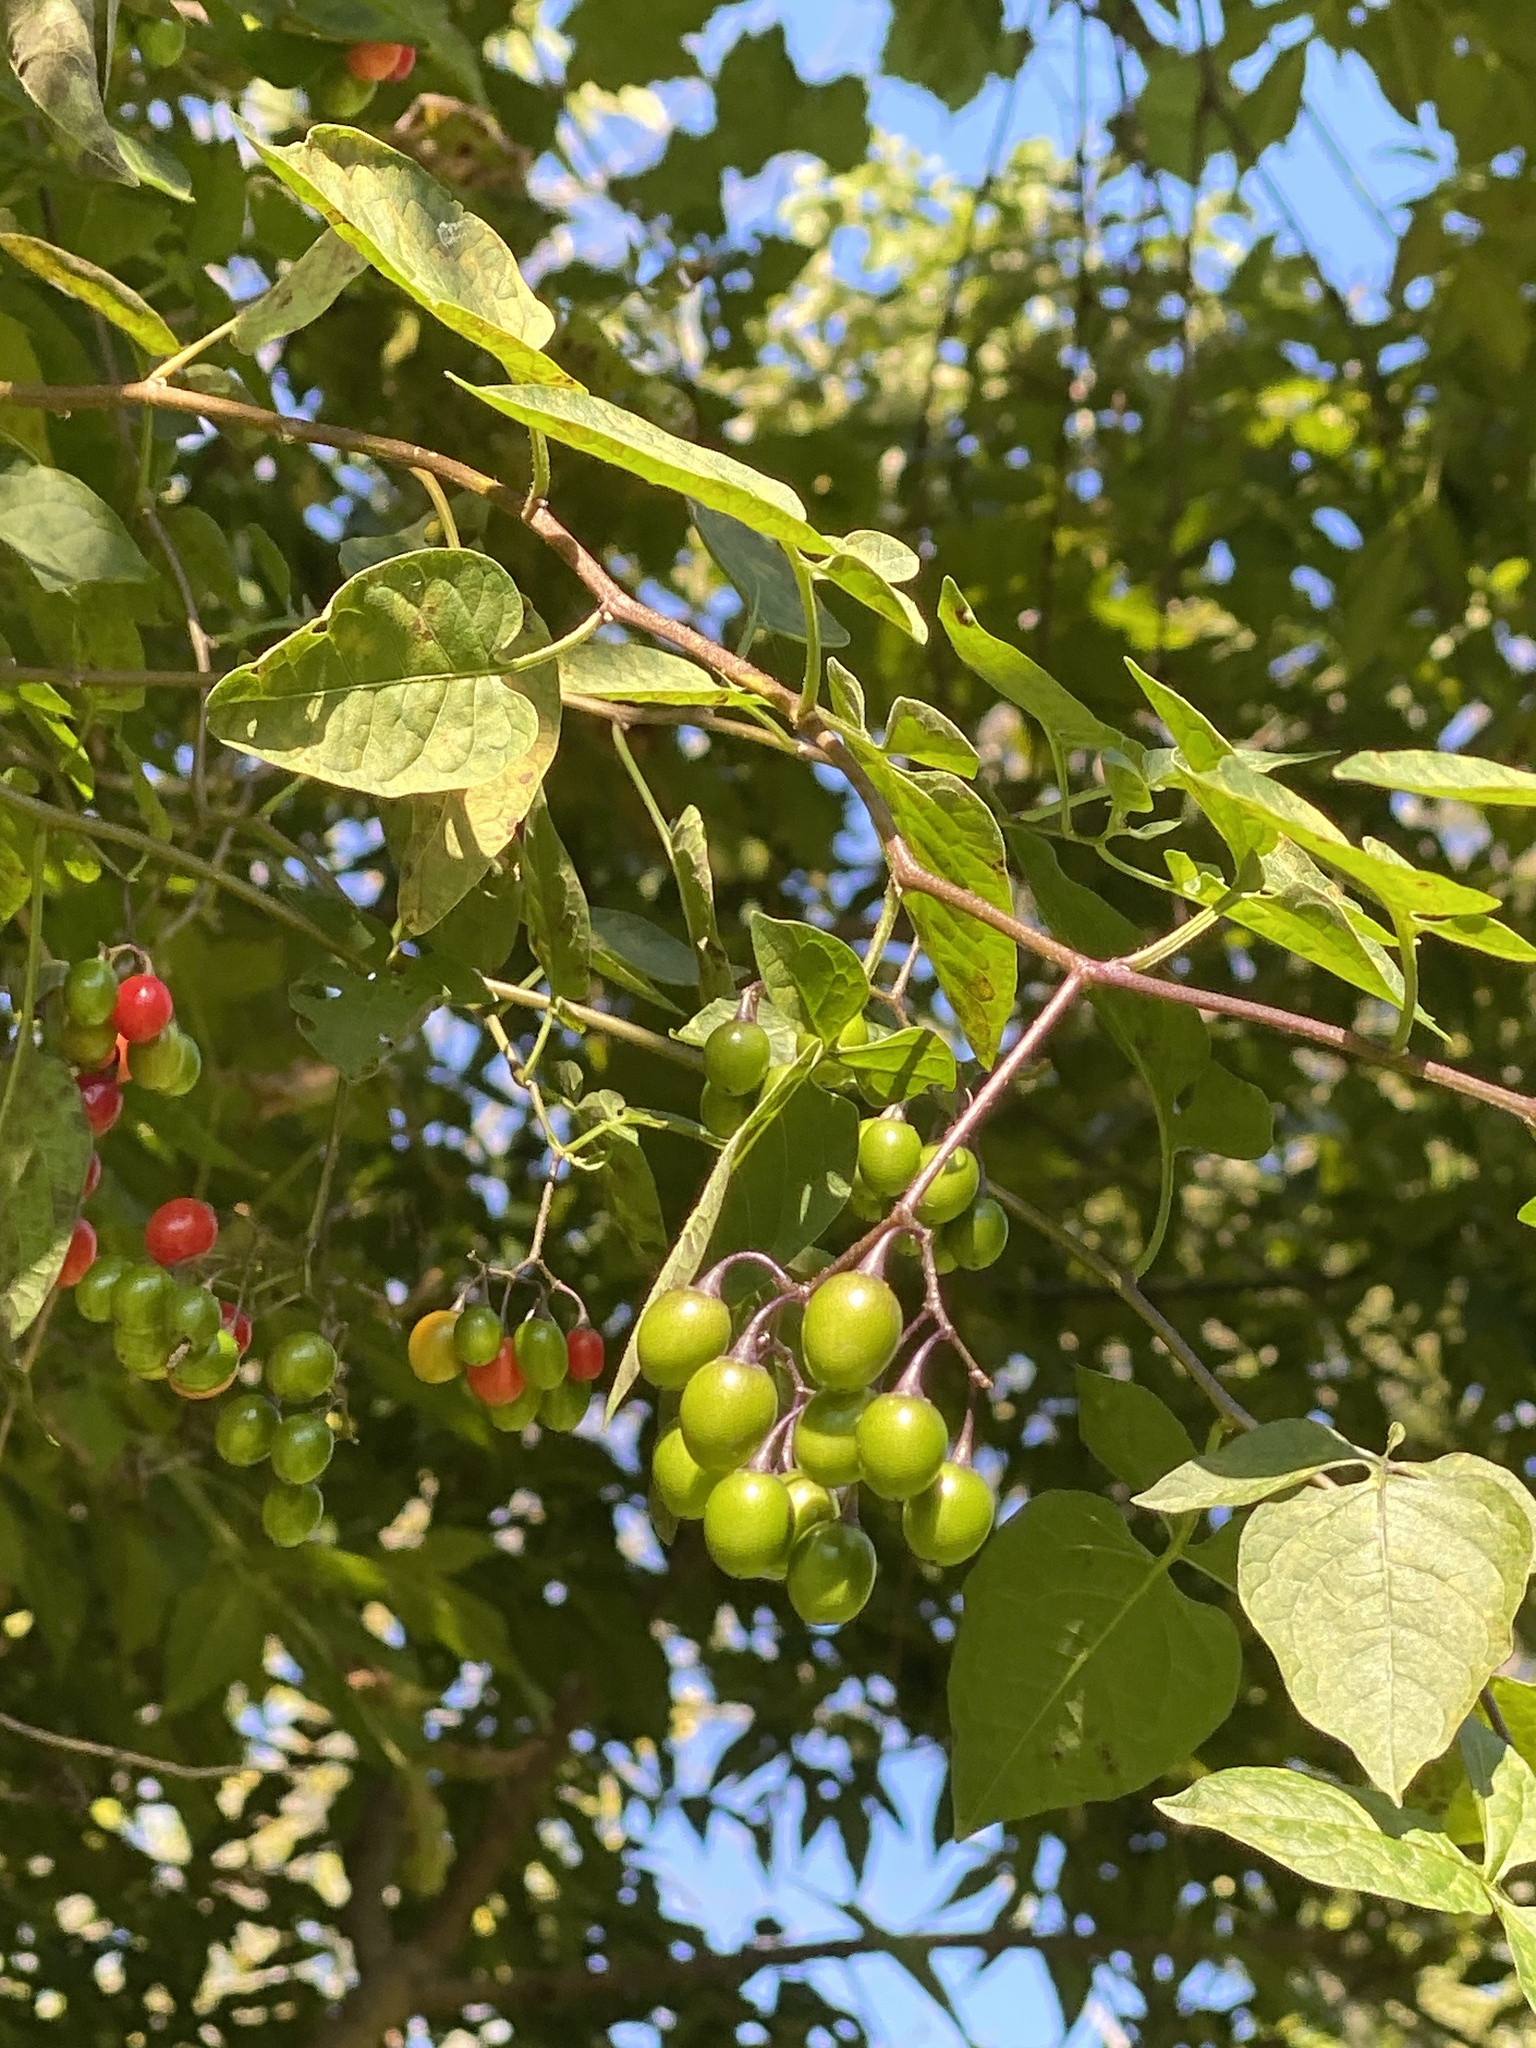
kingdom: Plantae
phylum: Tracheophyta
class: Magnoliopsida
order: Solanales
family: Solanaceae
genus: Solanum
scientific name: Solanum dulcamara
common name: Climbing nightshade
